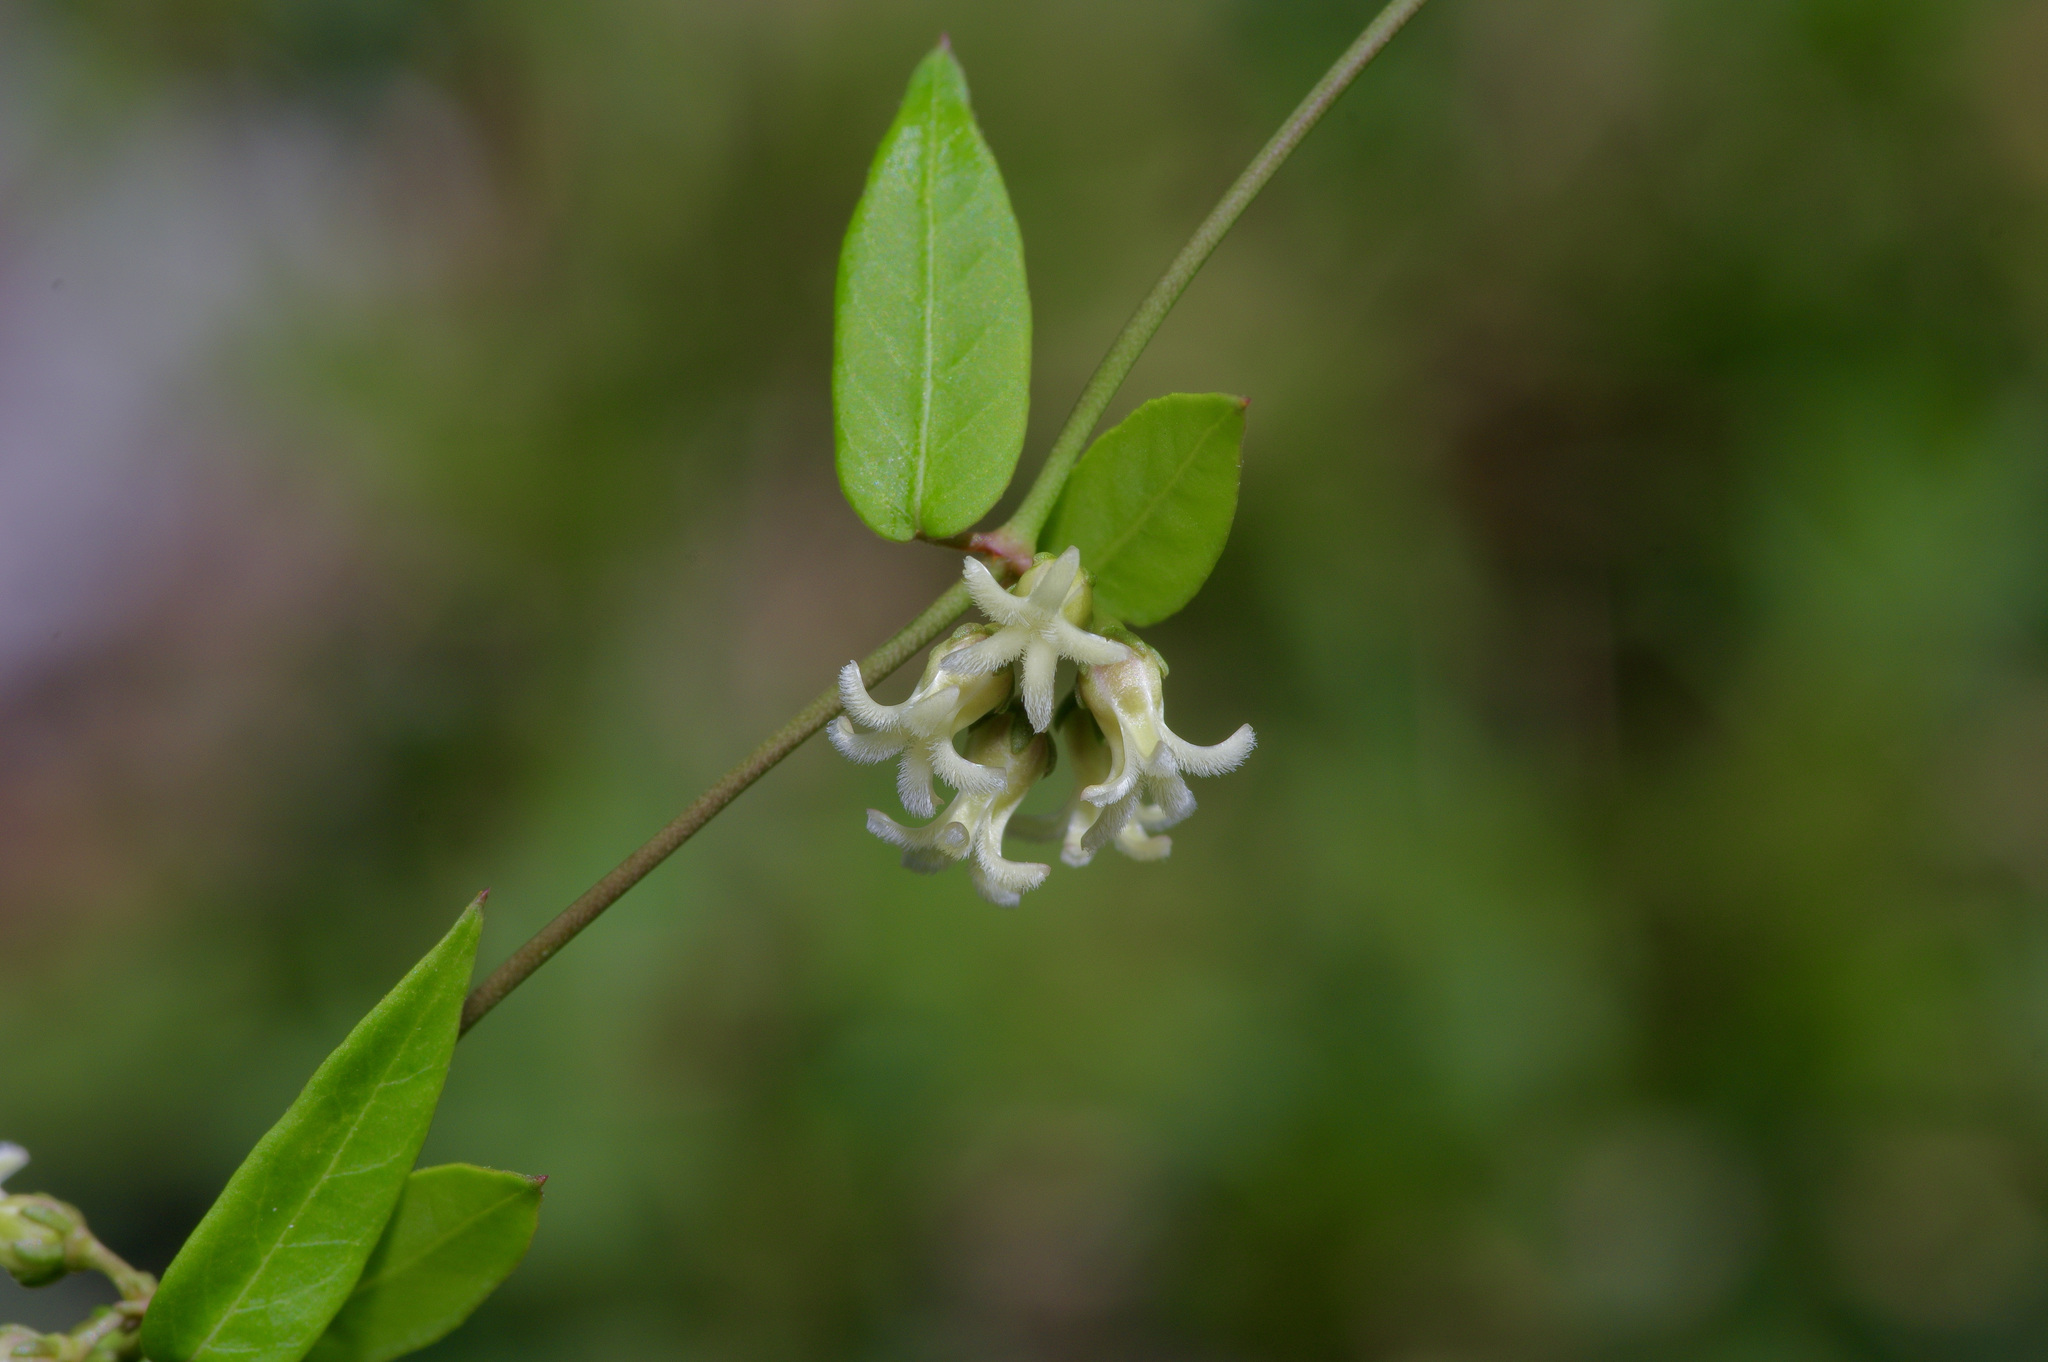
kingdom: Plantae
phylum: Tracheophyta
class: Magnoliopsida
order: Gentianales
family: Apocynaceae
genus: Metastelma
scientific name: Metastelma barbigerum
